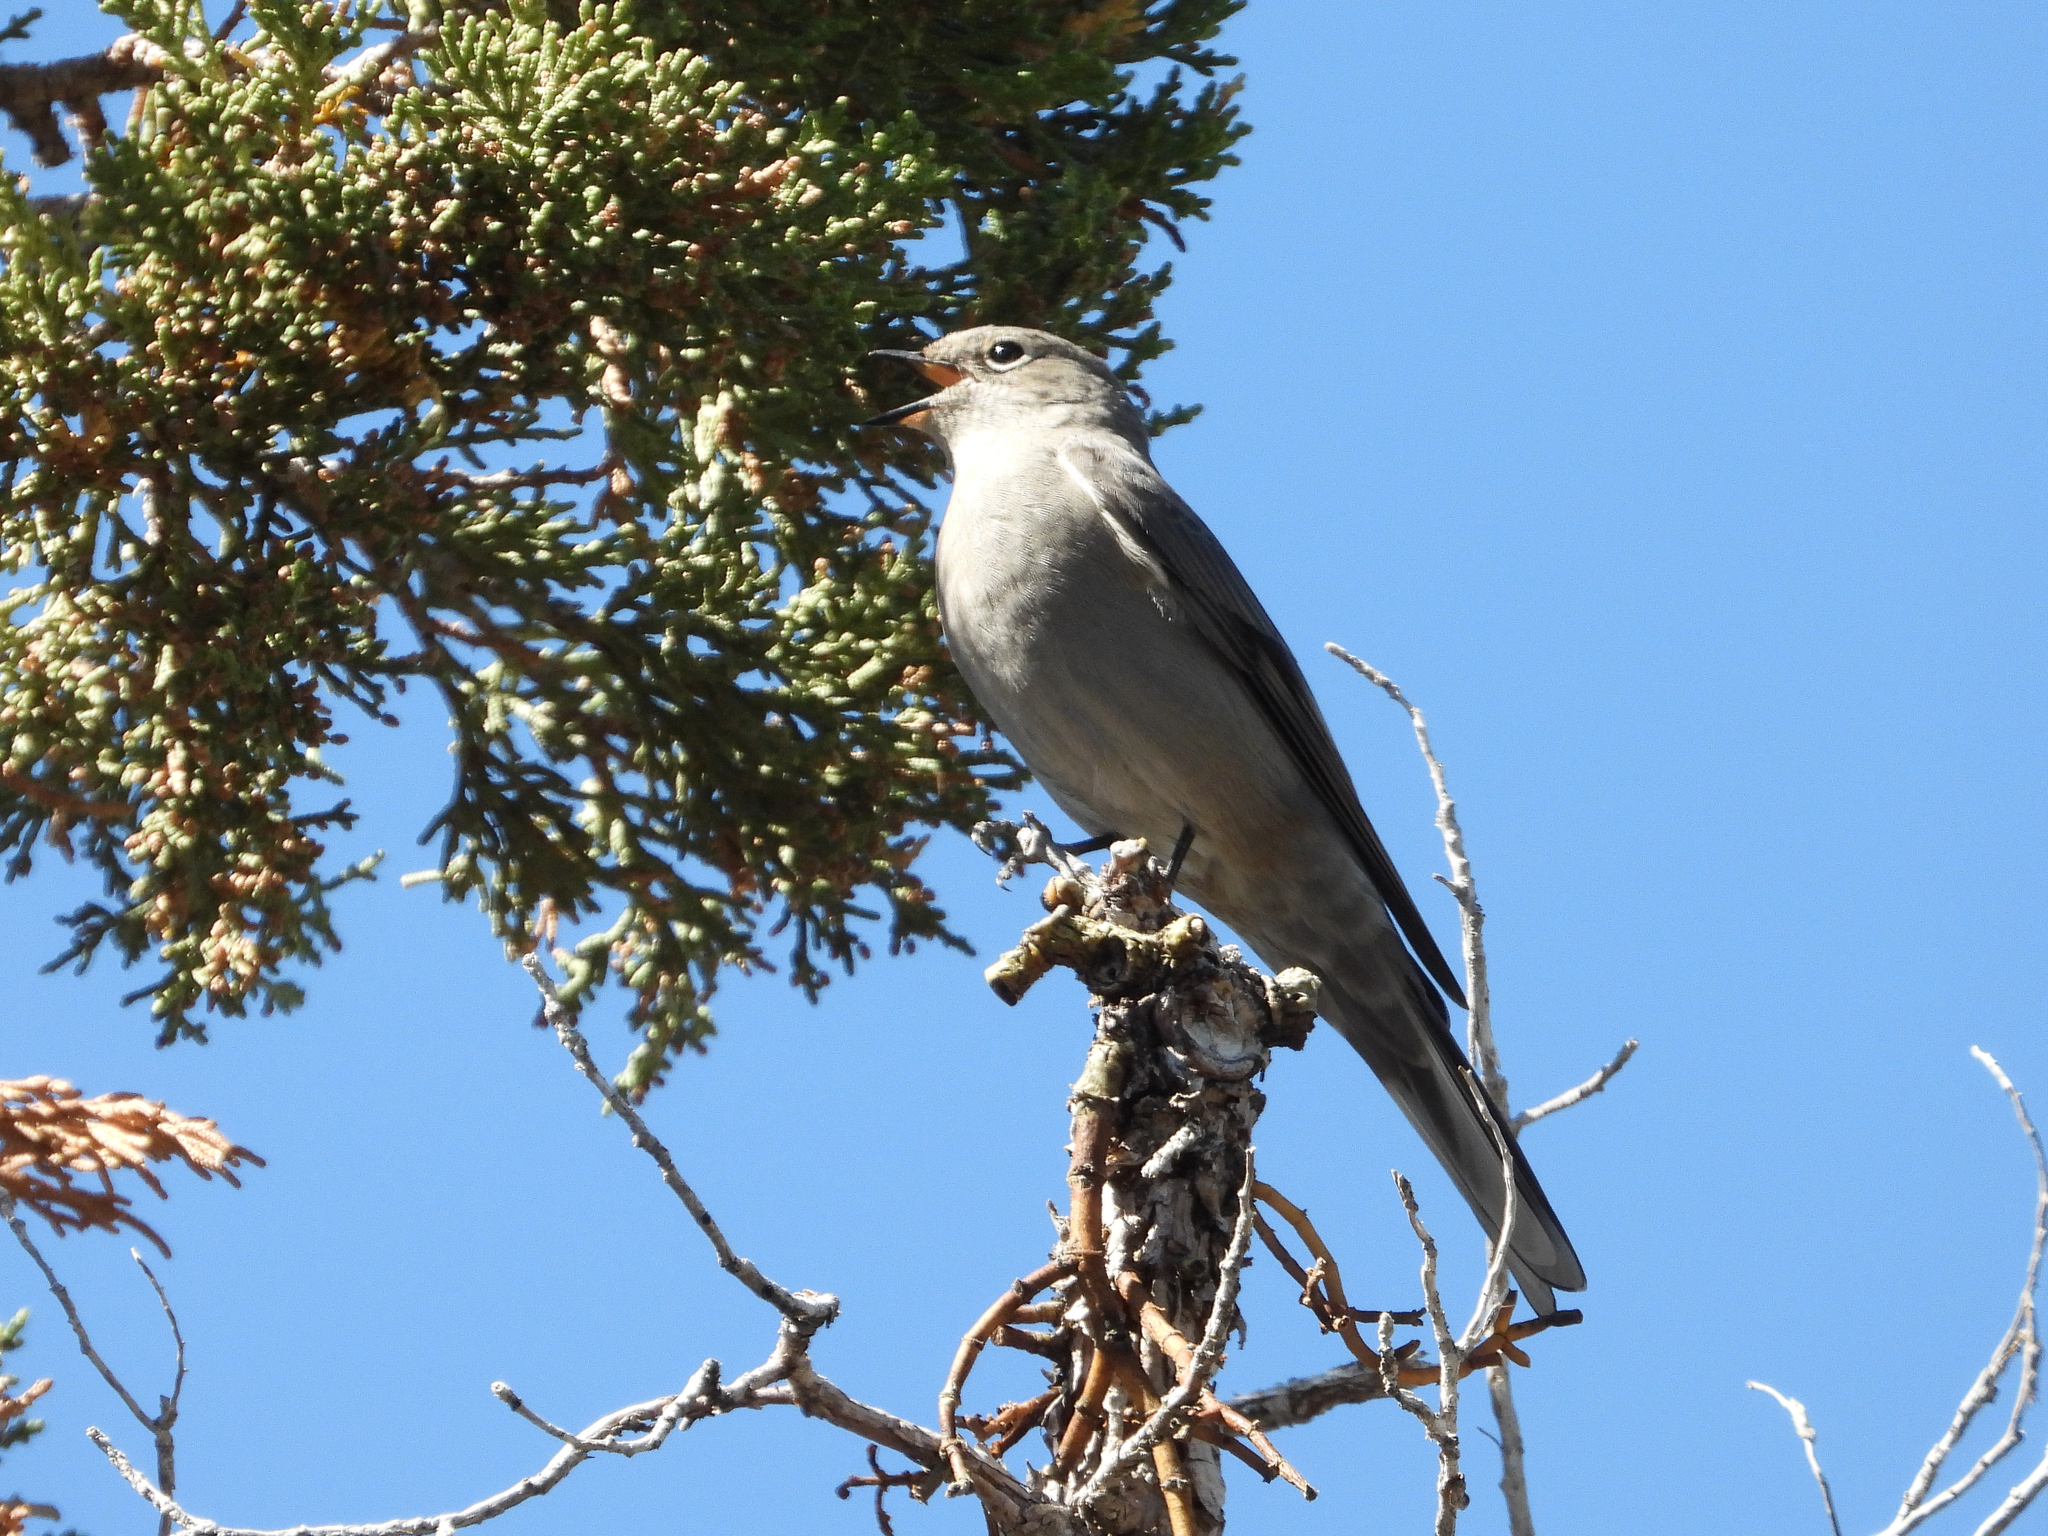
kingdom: Animalia
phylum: Chordata
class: Aves
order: Passeriformes
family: Turdidae
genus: Myadestes
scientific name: Myadestes townsendi
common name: Townsend's solitaire
